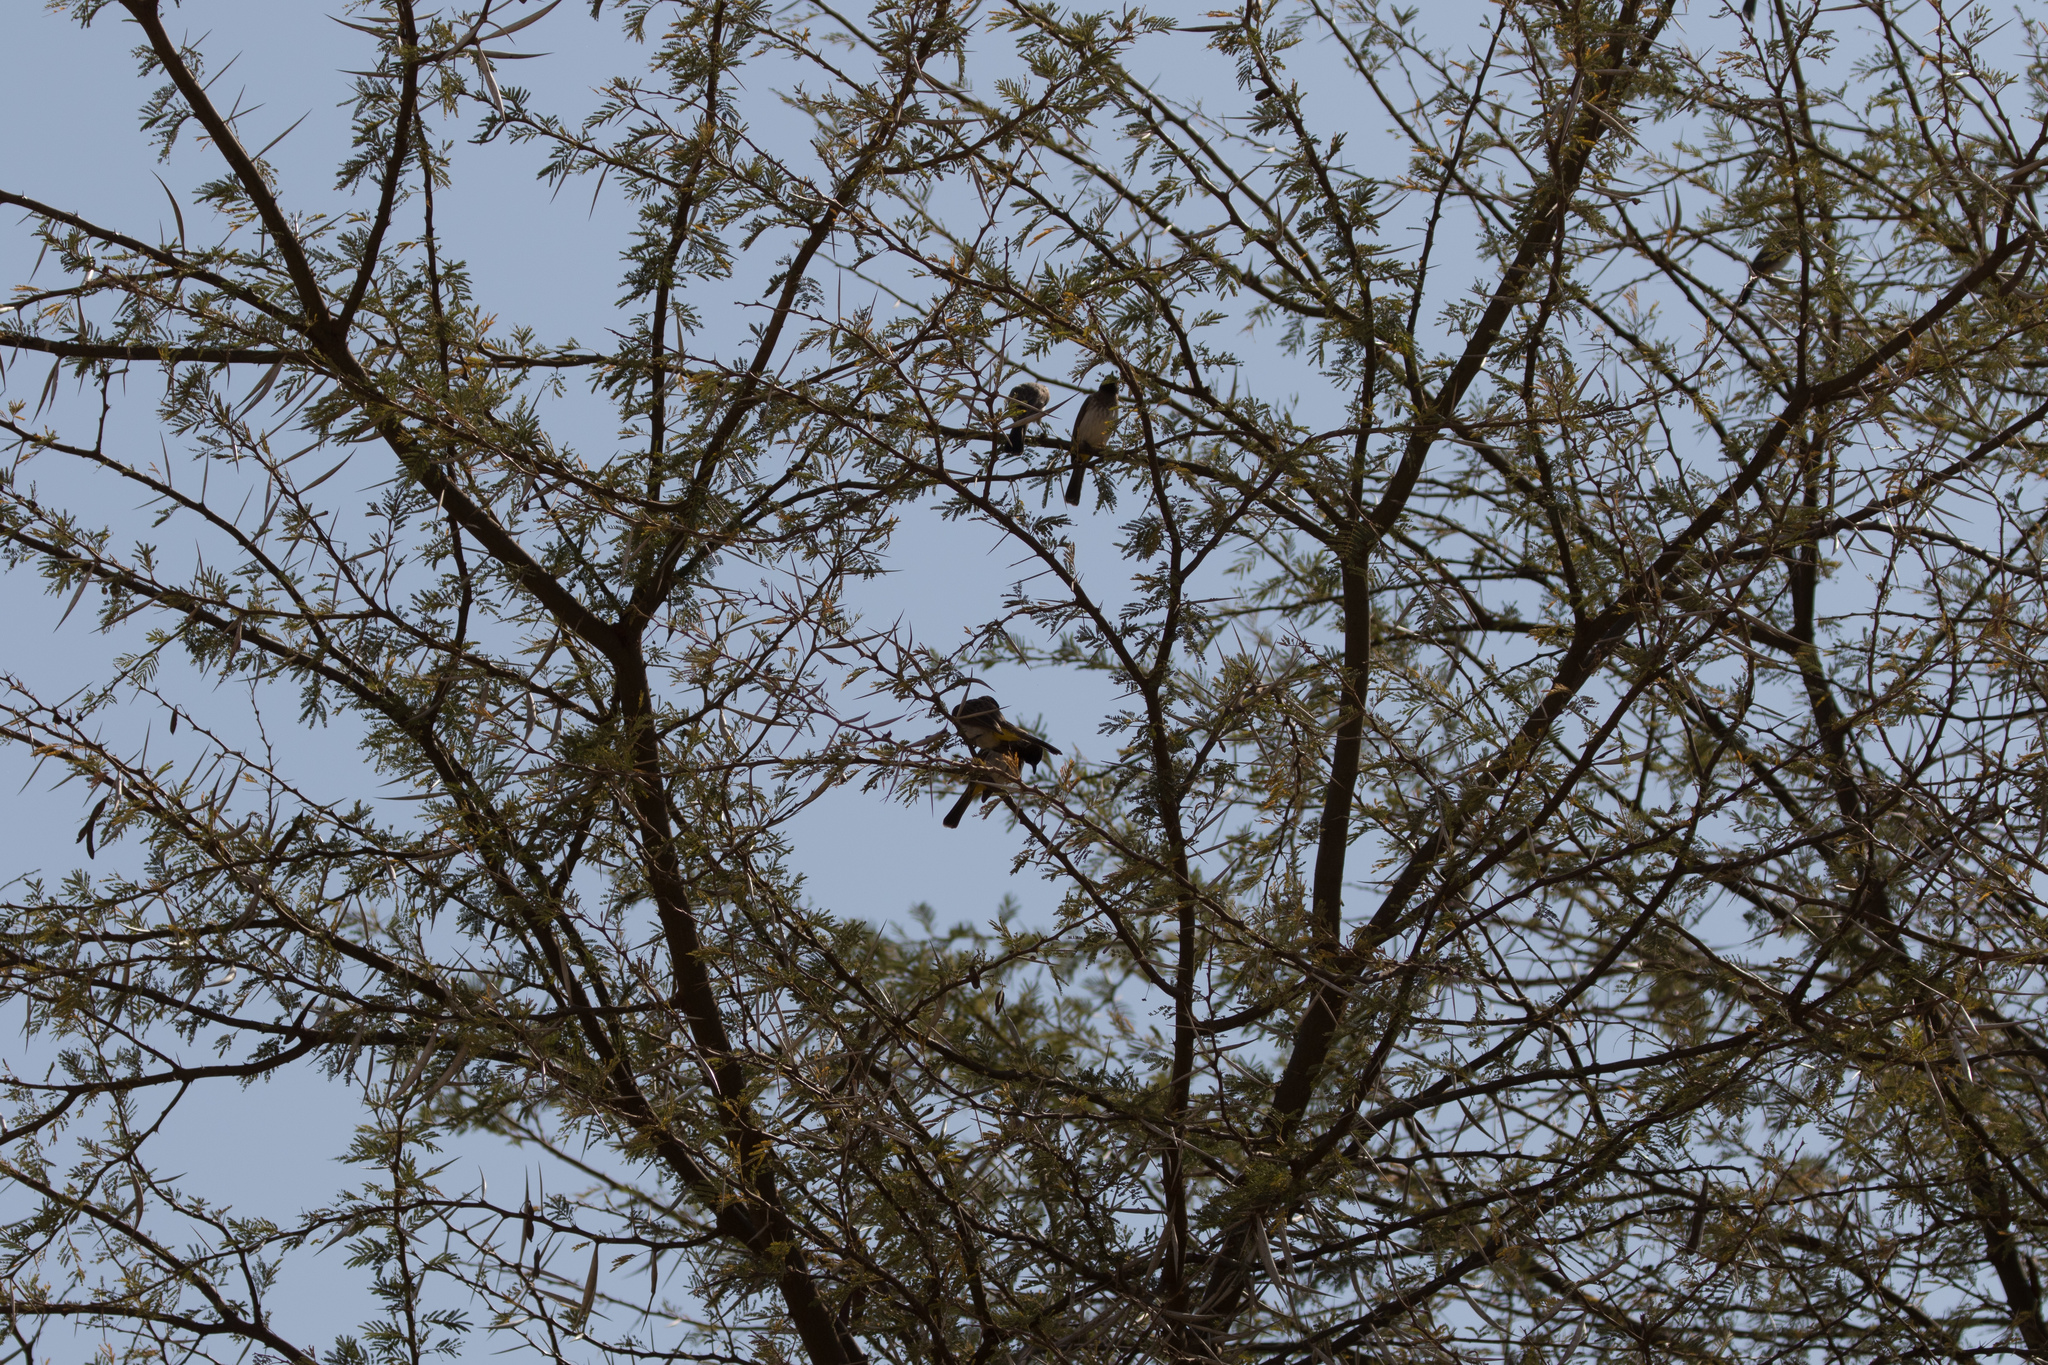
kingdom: Animalia
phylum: Chordata
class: Aves
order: Passeriformes
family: Pycnonotidae
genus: Pycnonotus
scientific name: Pycnonotus barbatus
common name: Common bulbul
